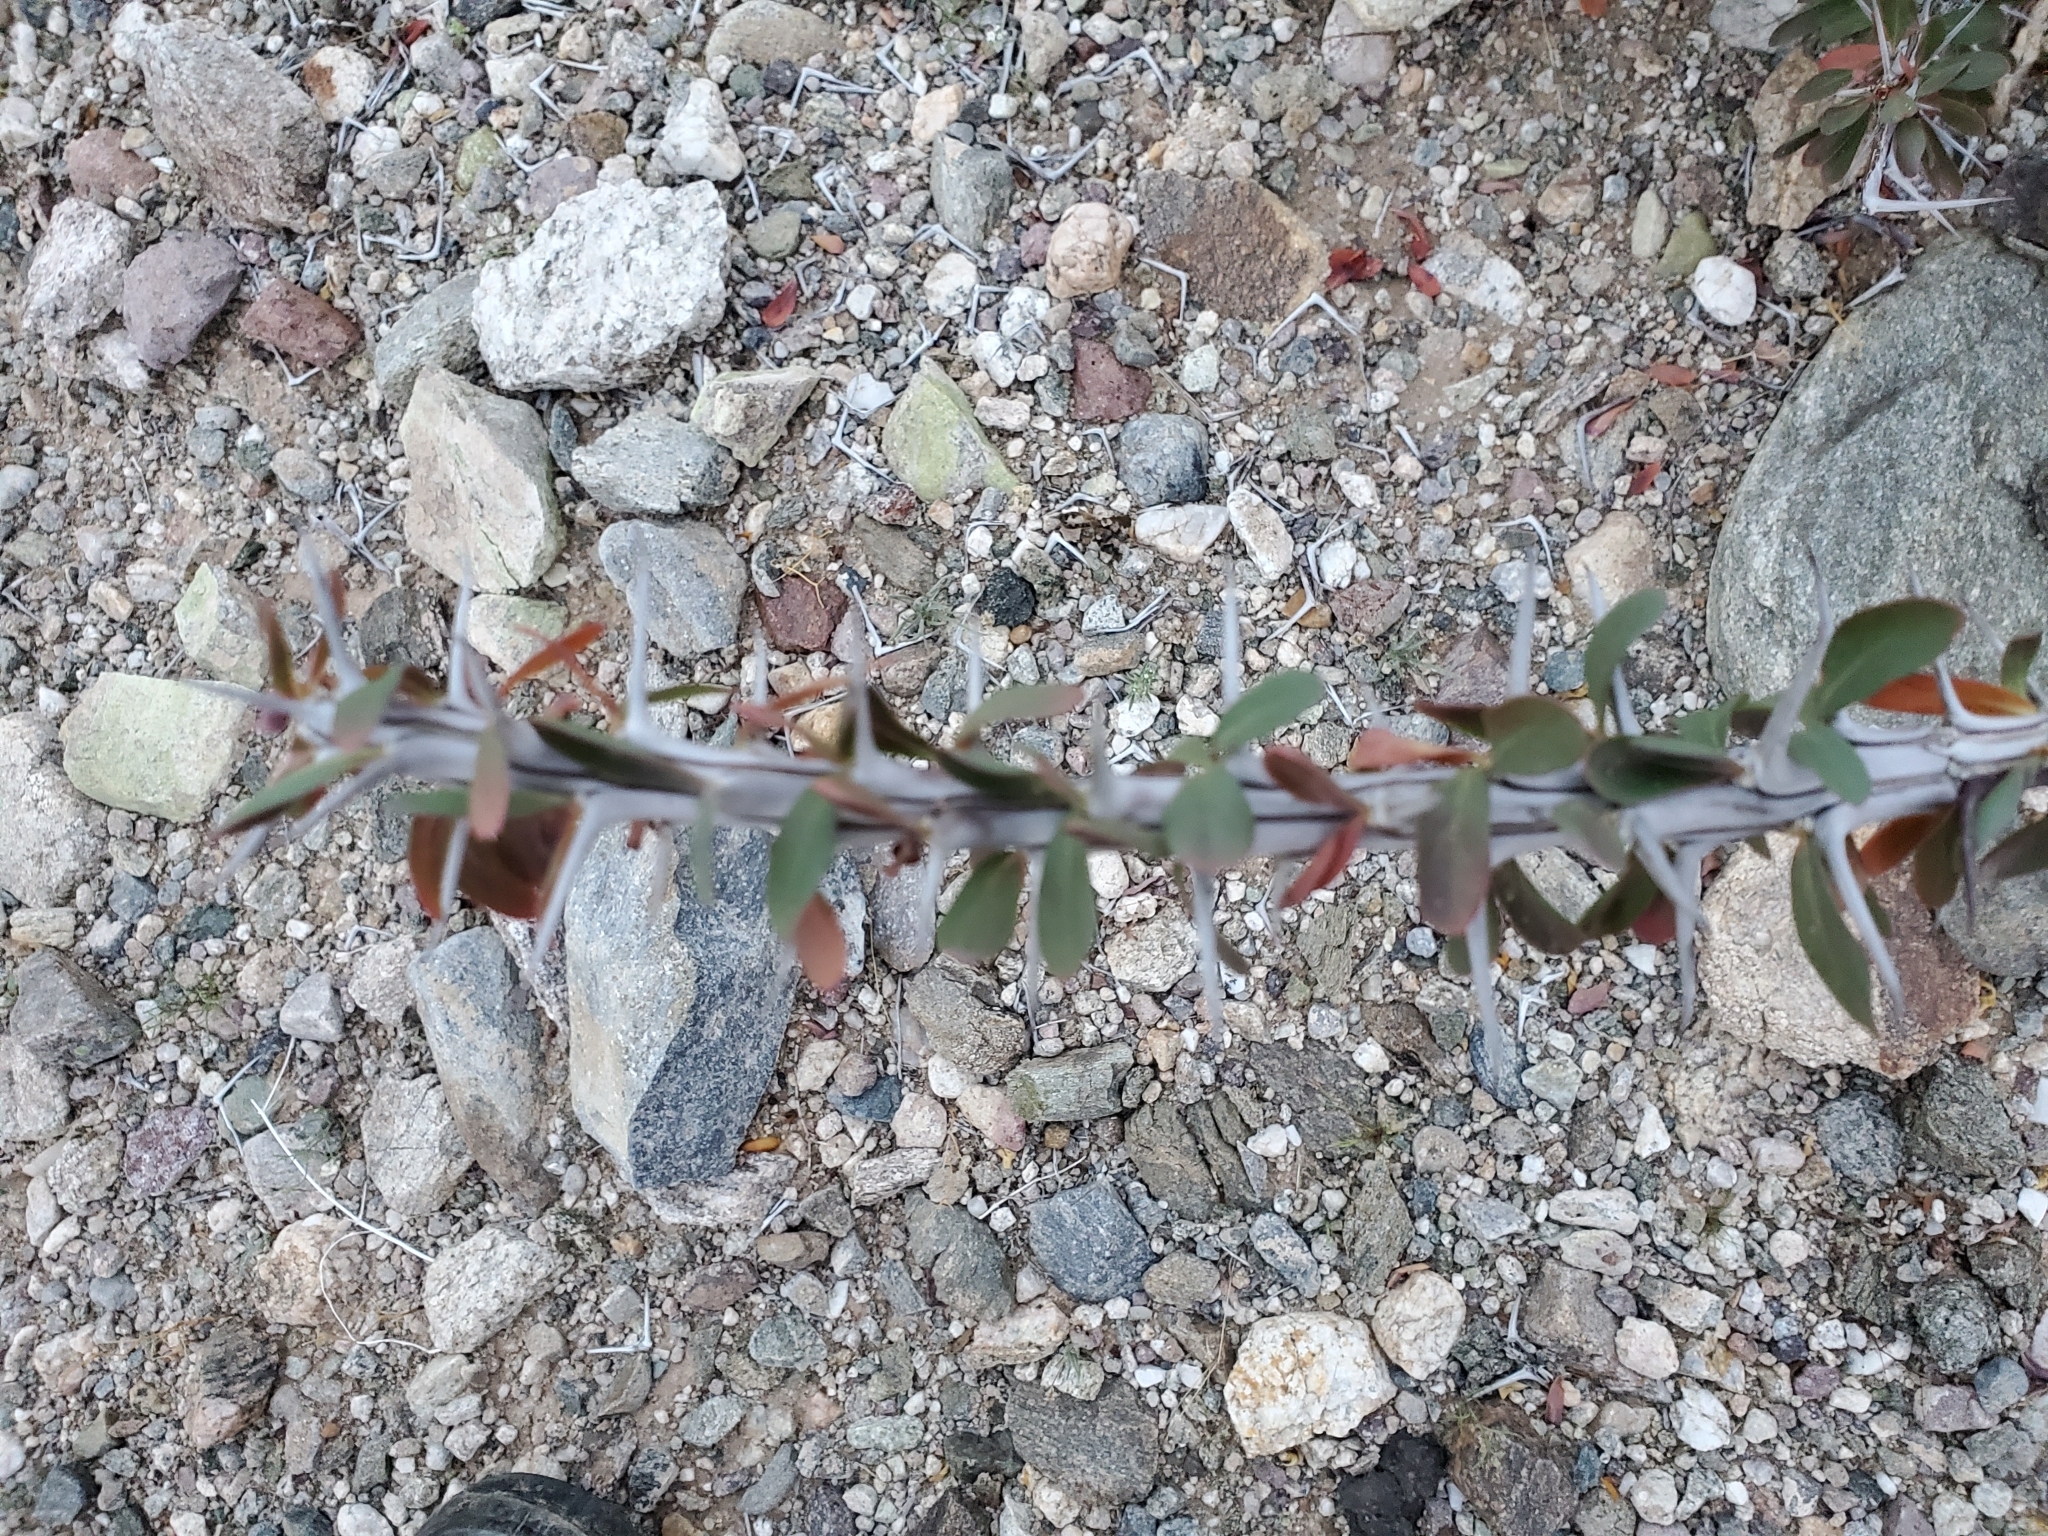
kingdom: Plantae
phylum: Tracheophyta
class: Magnoliopsida
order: Ericales
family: Fouquieriaceae
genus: Fouquieria
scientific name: Fouquieria splendens
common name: Vine-cactus
